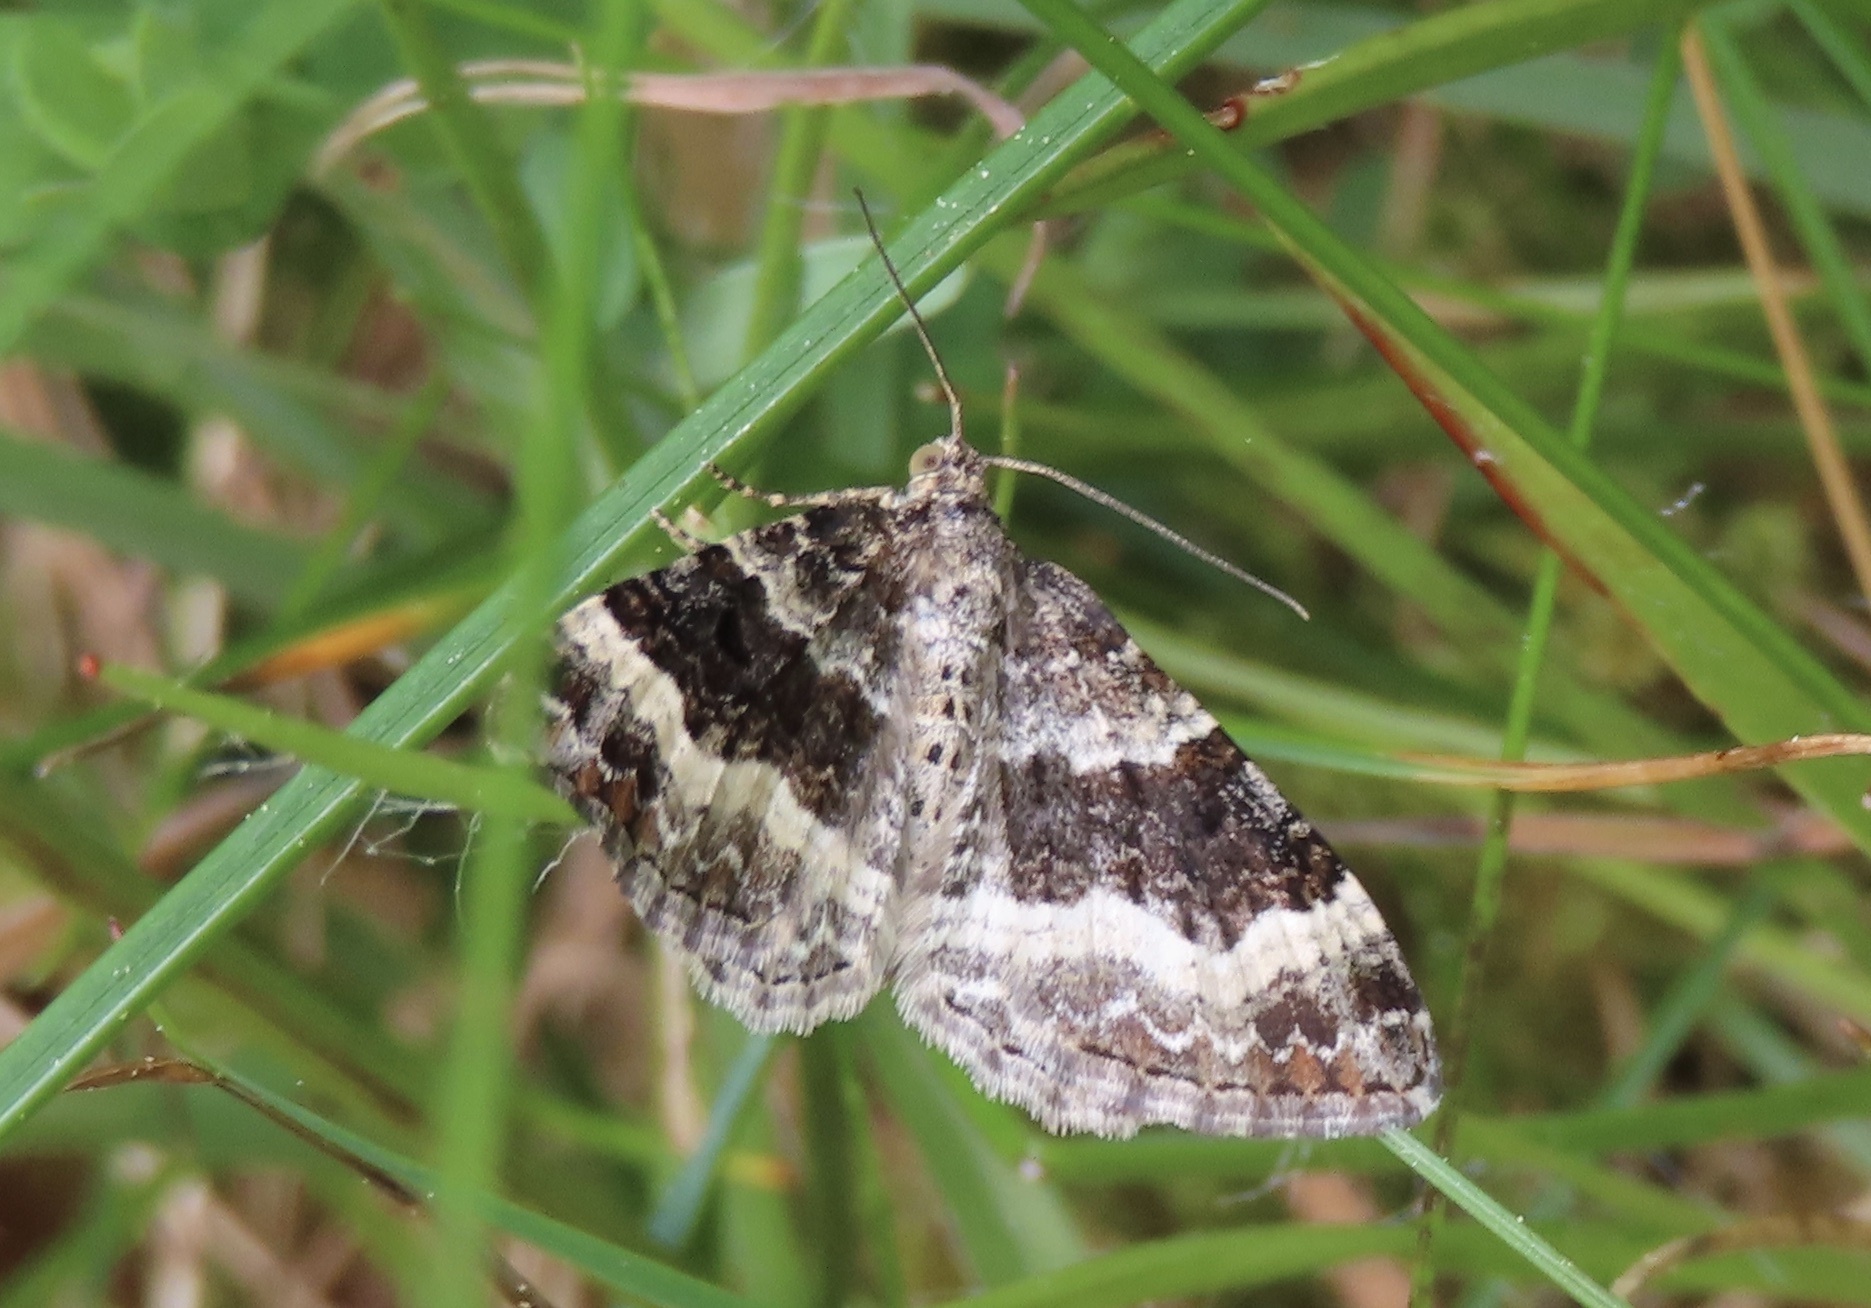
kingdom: Animalia
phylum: Arthropoda
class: Insecta
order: Lepidoptera
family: Geometridae
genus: Epirrhoe
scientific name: Epirrhoe alternata
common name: Common carpet
